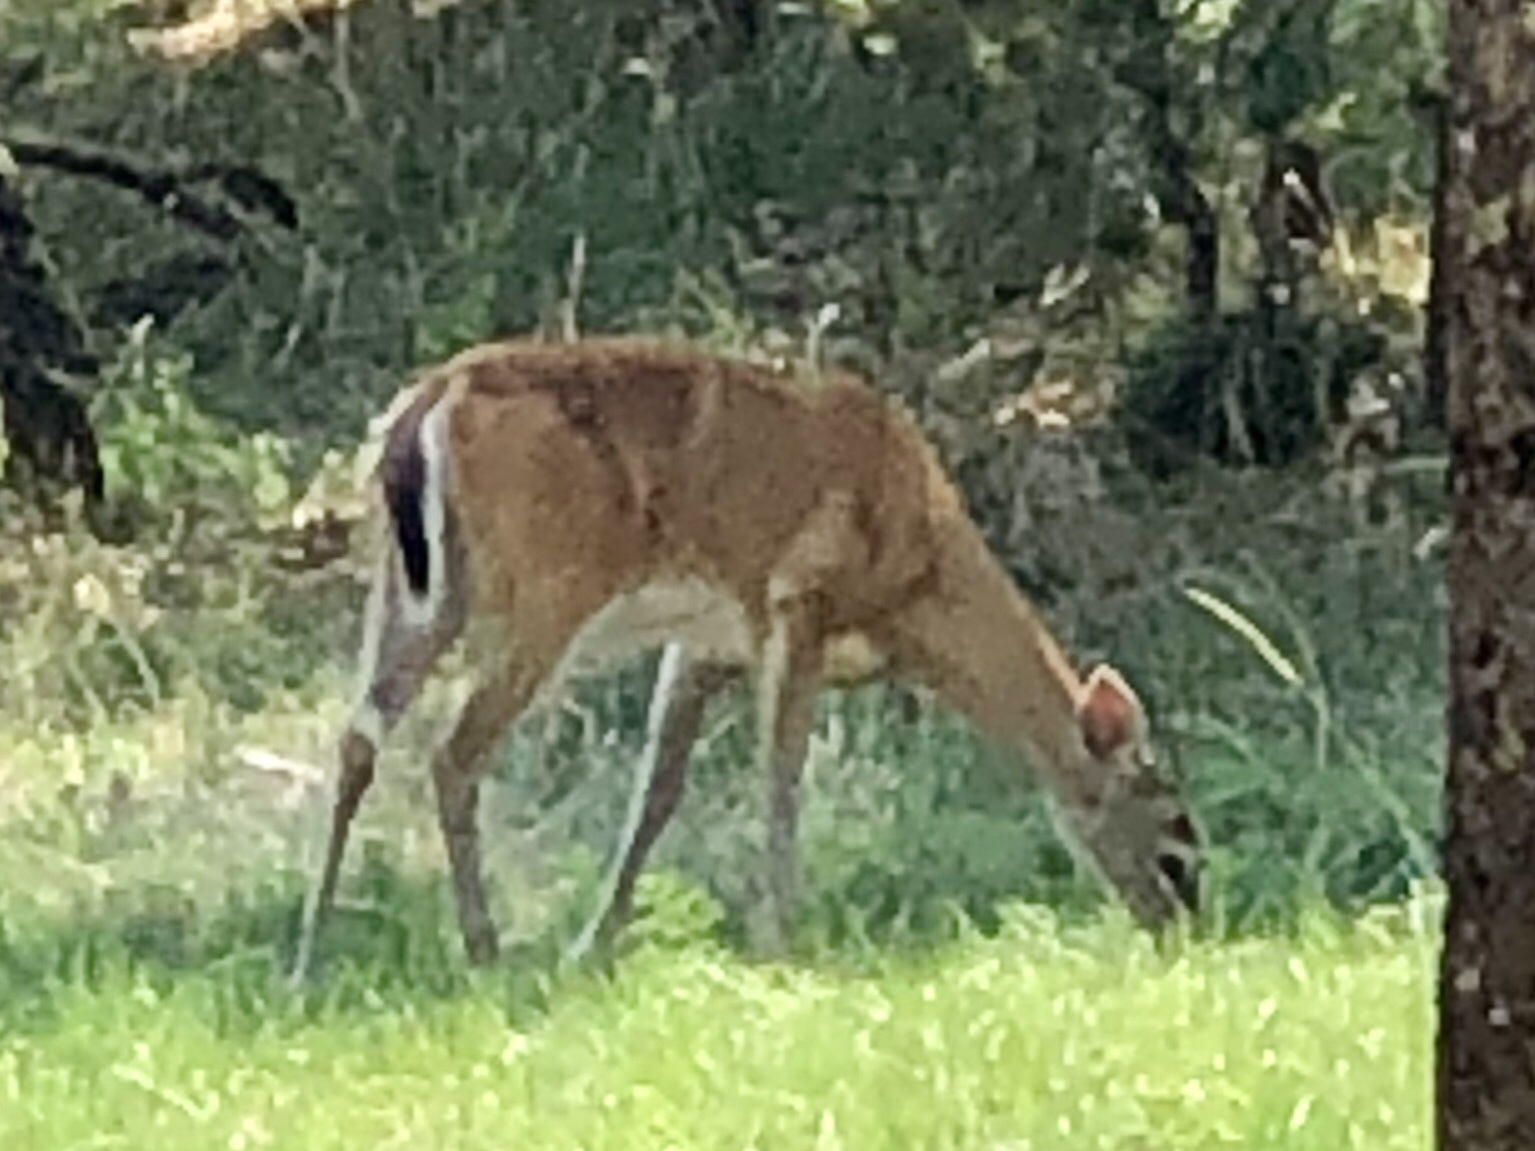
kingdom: Animalia
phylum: Chordata
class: Mammalia
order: Artiodactyla
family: Cervidae
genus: Odocoileus
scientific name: Odocoileus virginianus
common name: White-tailed deer
